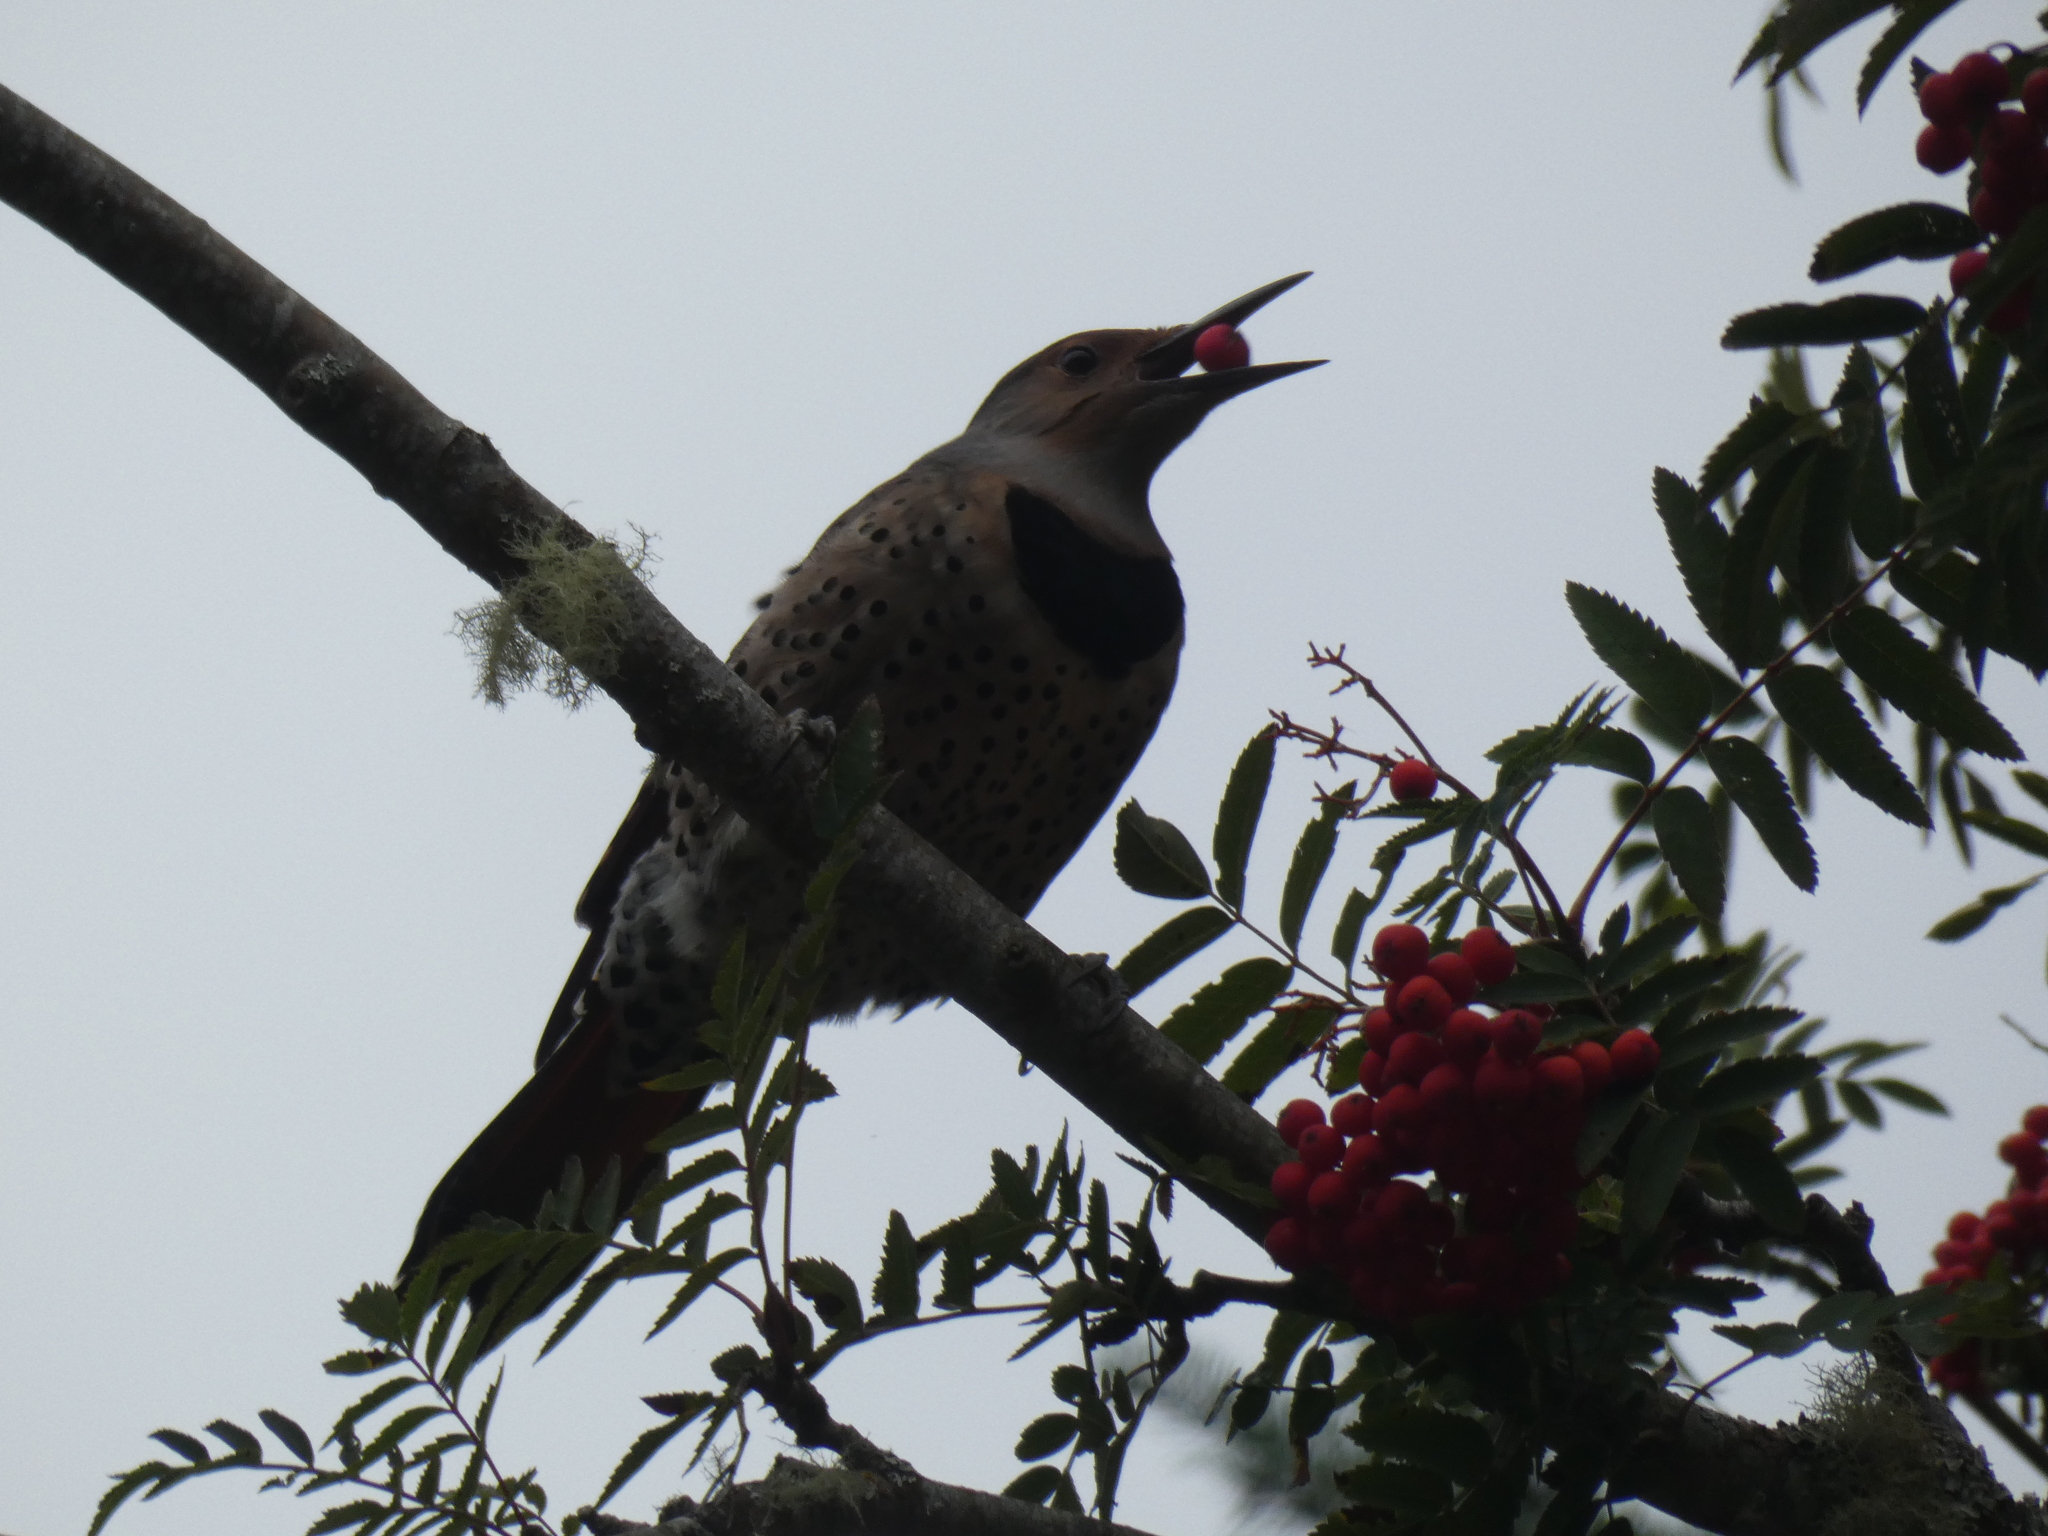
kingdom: Animalia
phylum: Chordata
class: Aves
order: Piciformes
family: Picidae
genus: Colaptes
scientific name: Colaptes auratus
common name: Northern flicker
